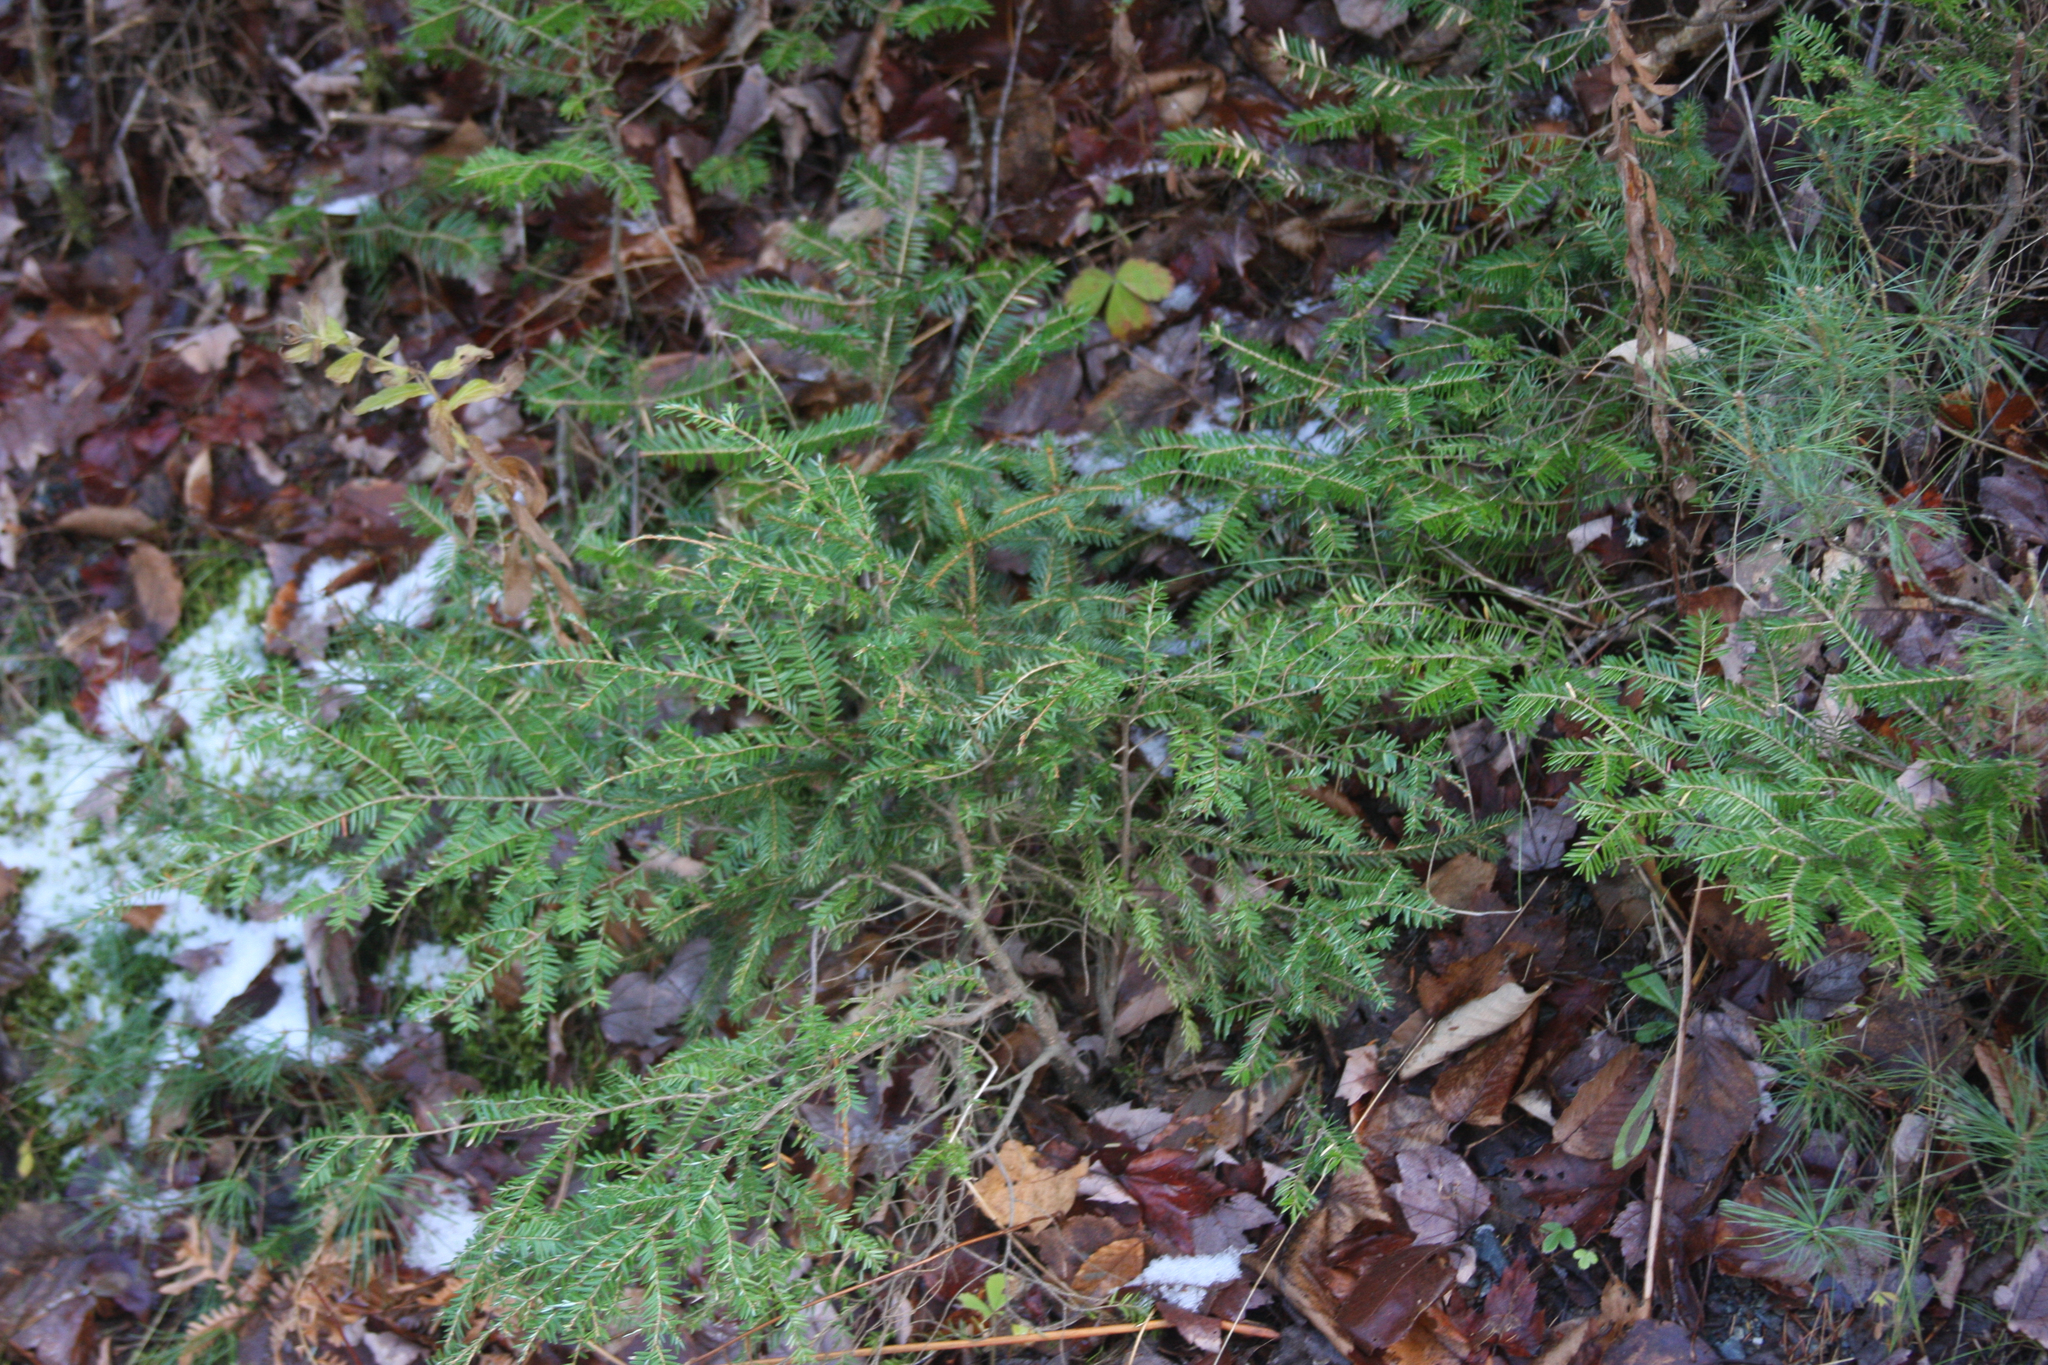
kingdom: Plantae
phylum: Tracheophyta
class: Pinopsida
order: Pinales
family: Pinaceae
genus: Tsuga
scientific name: Tsuga canadensis
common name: Eastern hemlock
